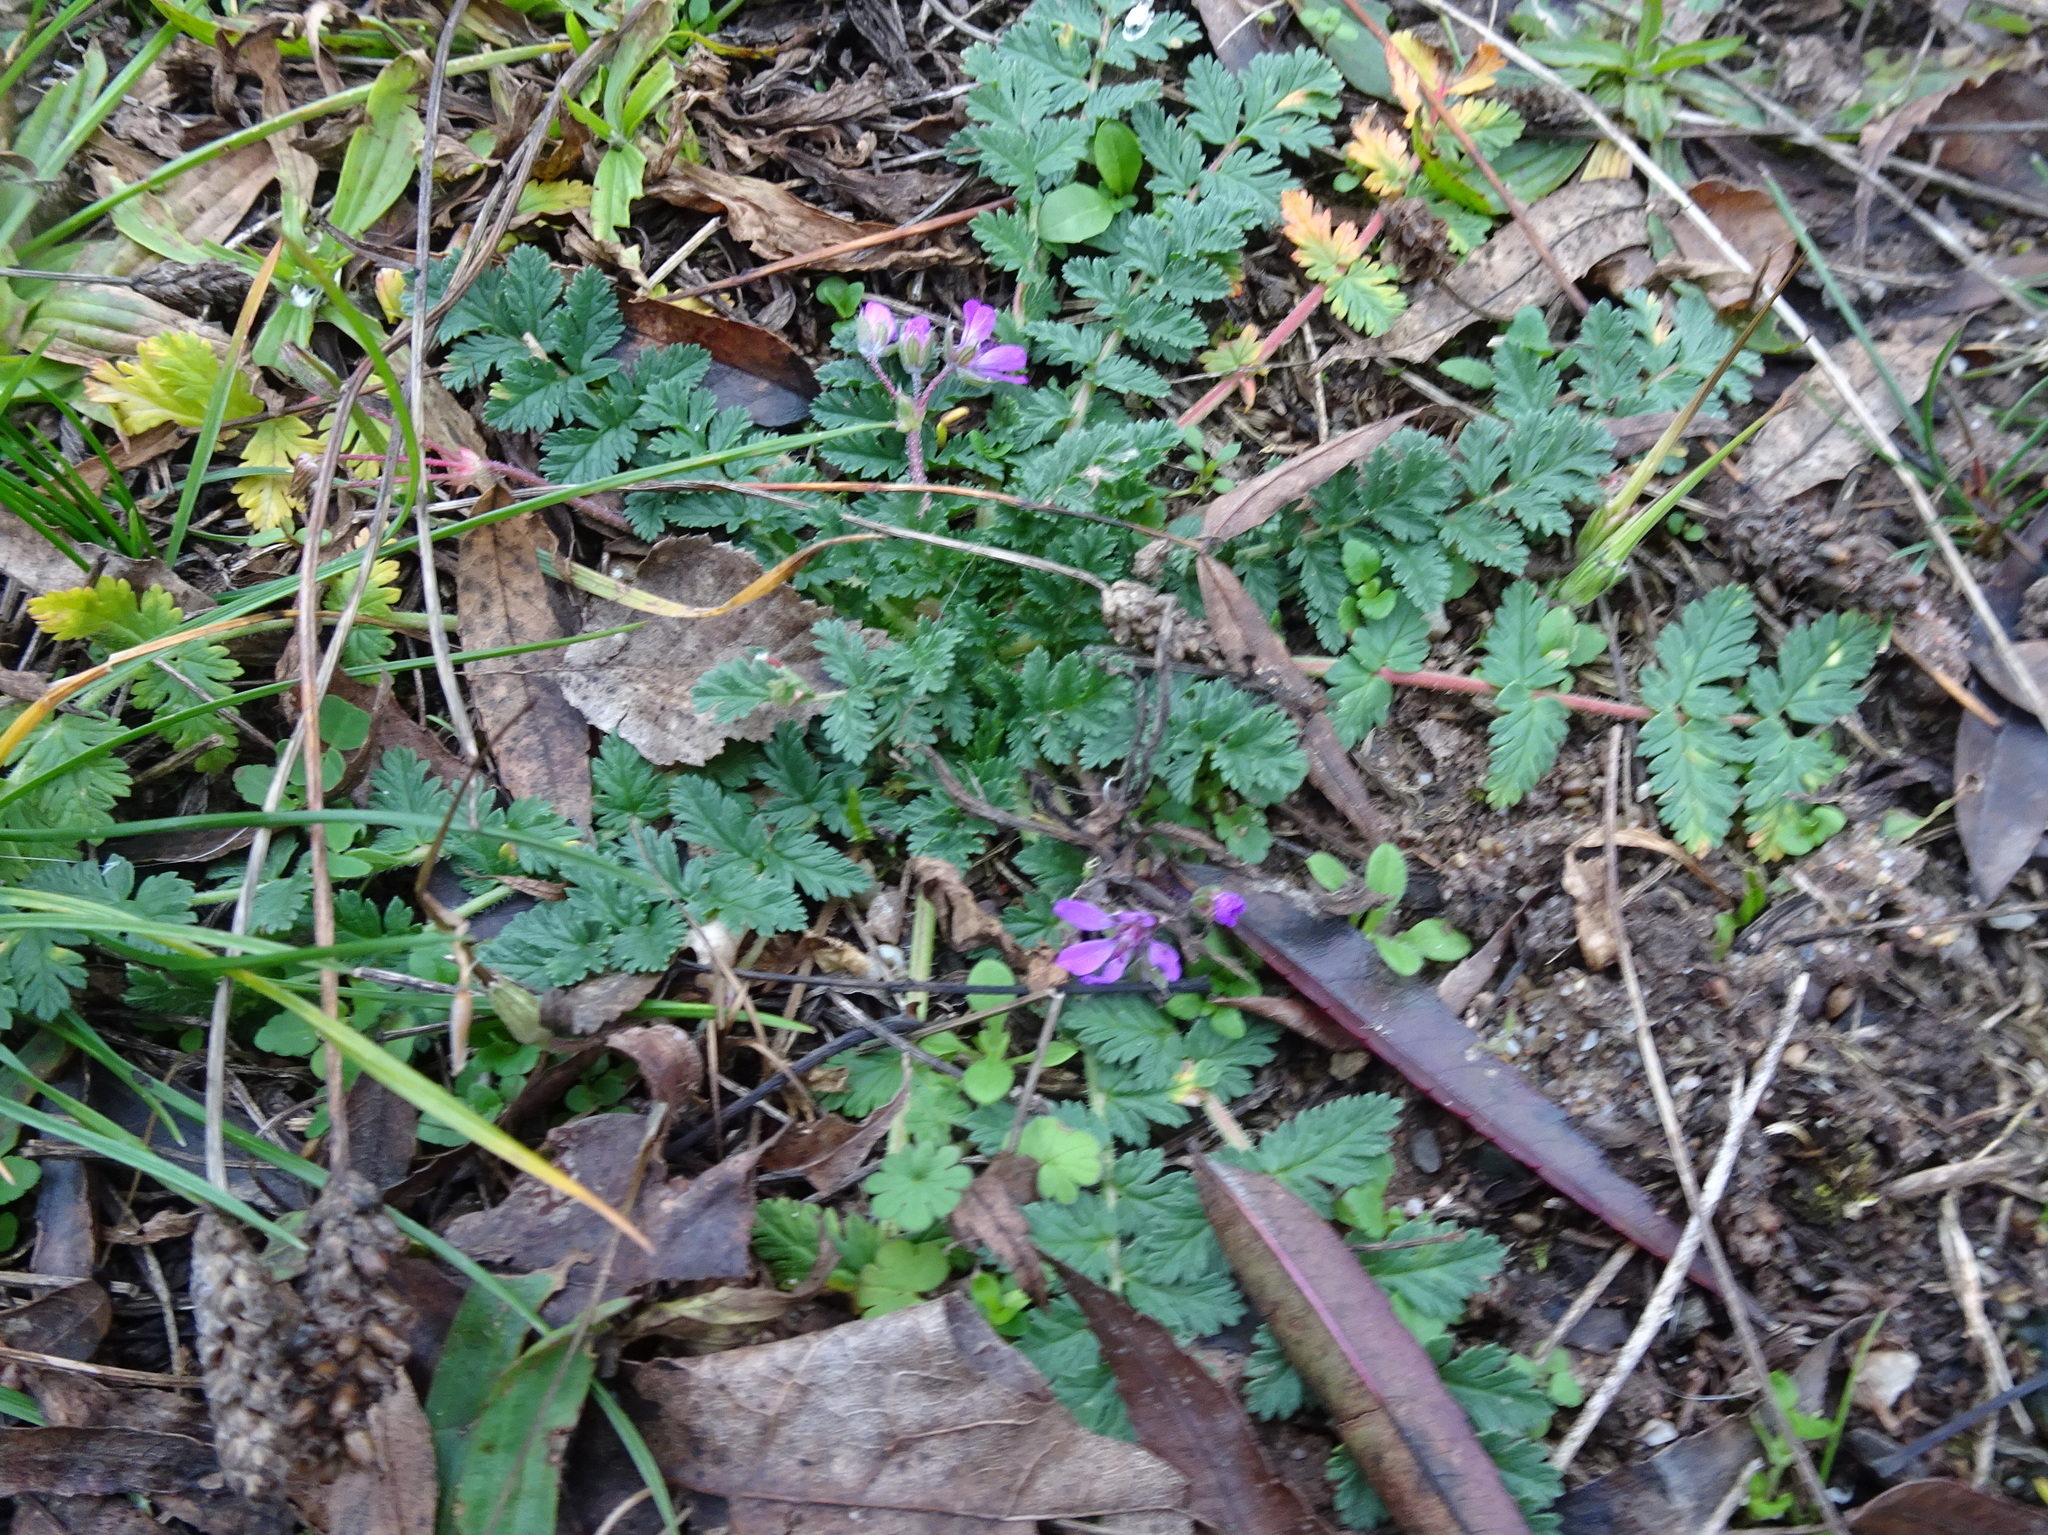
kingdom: Plantae
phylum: Tracheophyta
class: Magnoliopsida
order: Geraniales
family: Geraniaceae
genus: Erodium
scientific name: Erodium cicutarium
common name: Common stork's-bill
